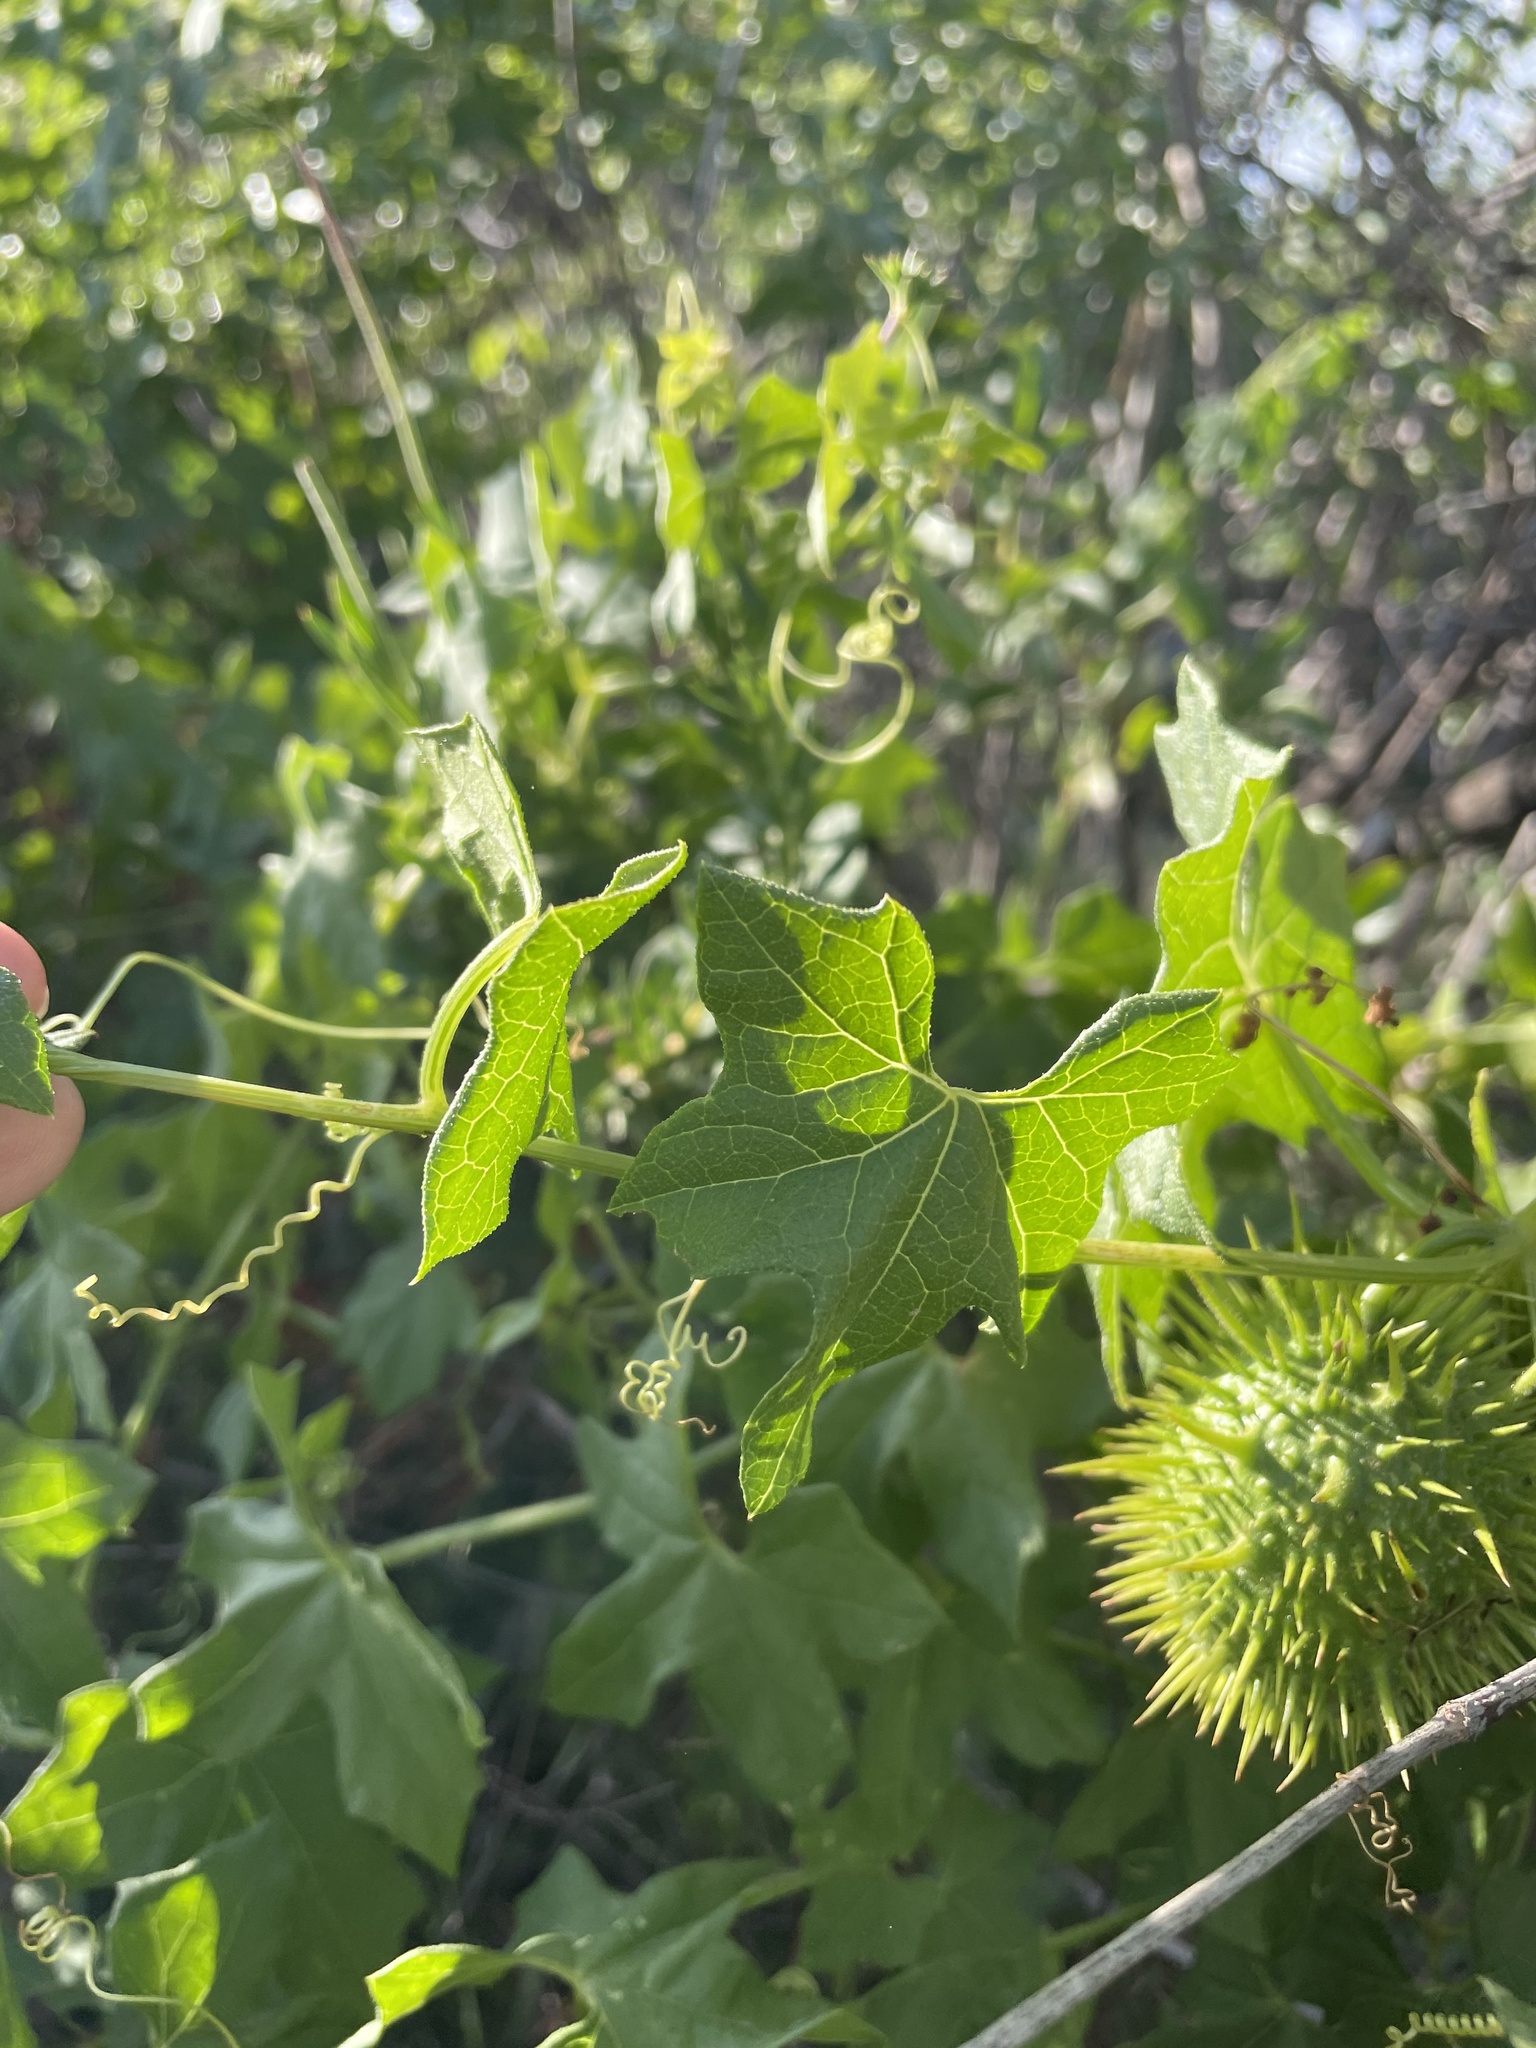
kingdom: Plantae
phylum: Tracheophyta
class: Magnoliopsida
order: Cucurbitales
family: Cucurbitaceae
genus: Marah
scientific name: Marah macrocarpa
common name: Cucamonga manroot
